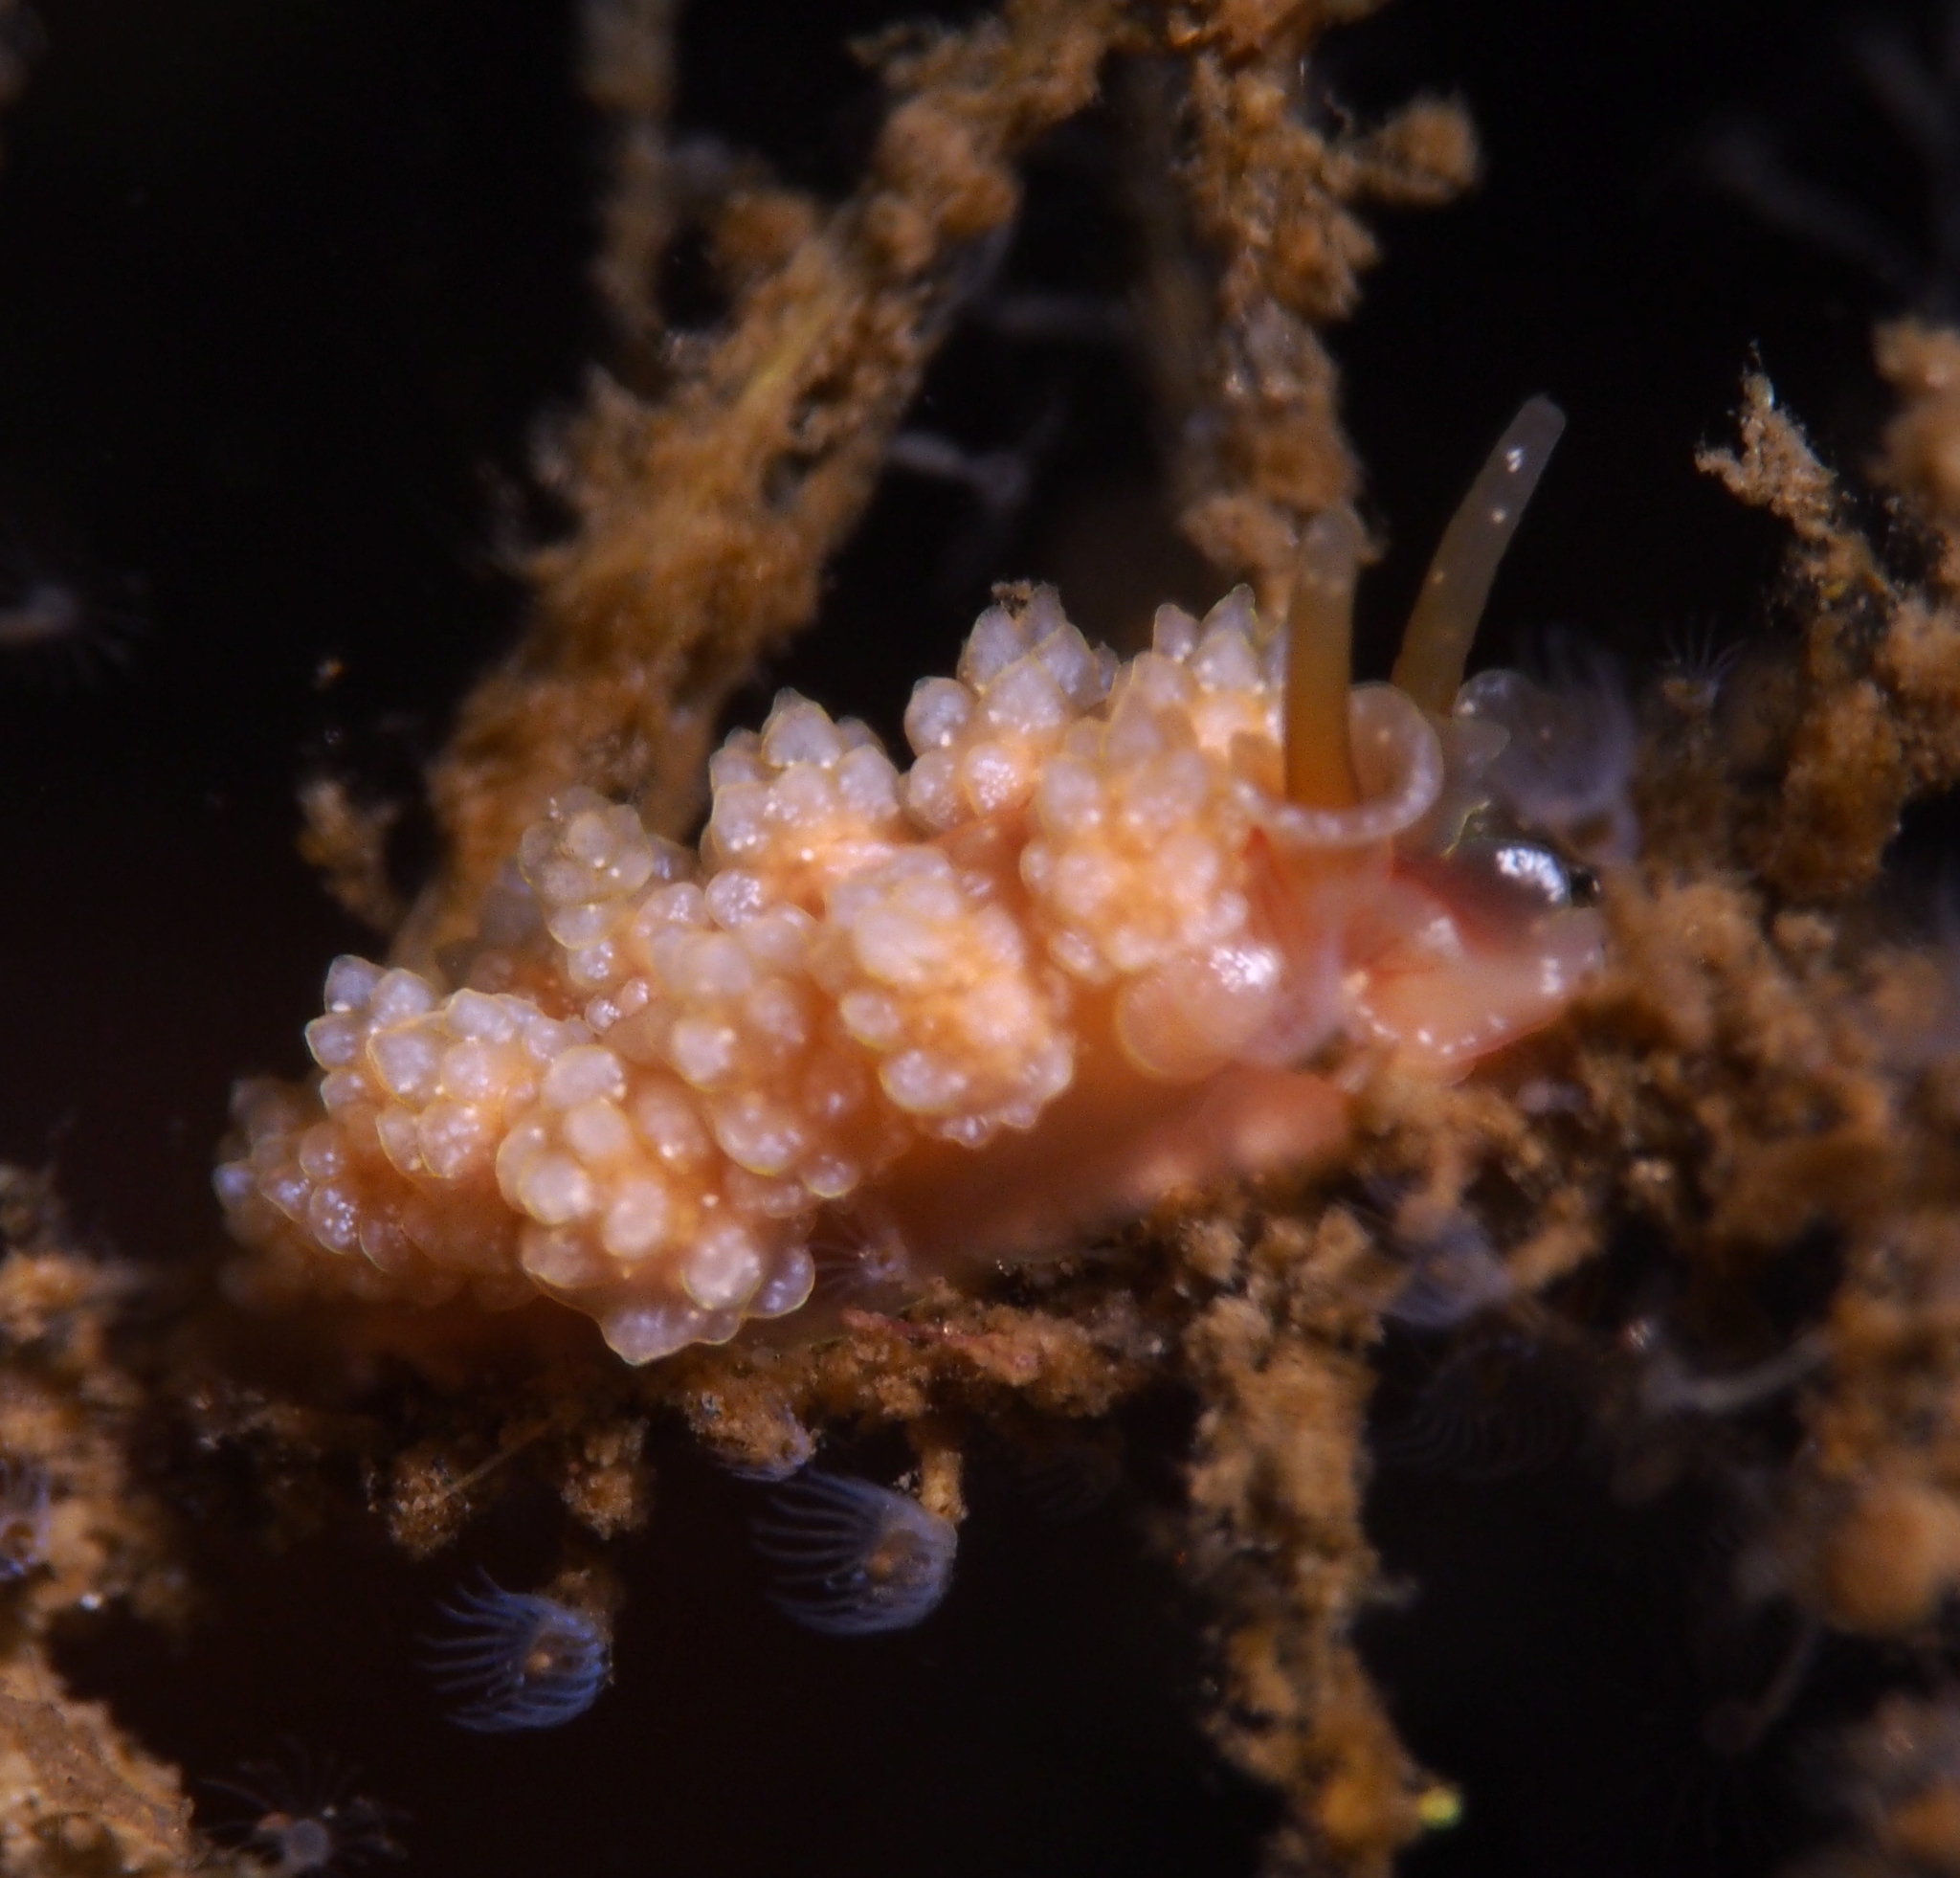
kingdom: Animalia
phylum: Mollusca
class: Gastropoda
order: Nudibranchia
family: Dotidae
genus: Doto
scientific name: Doto fragilis
